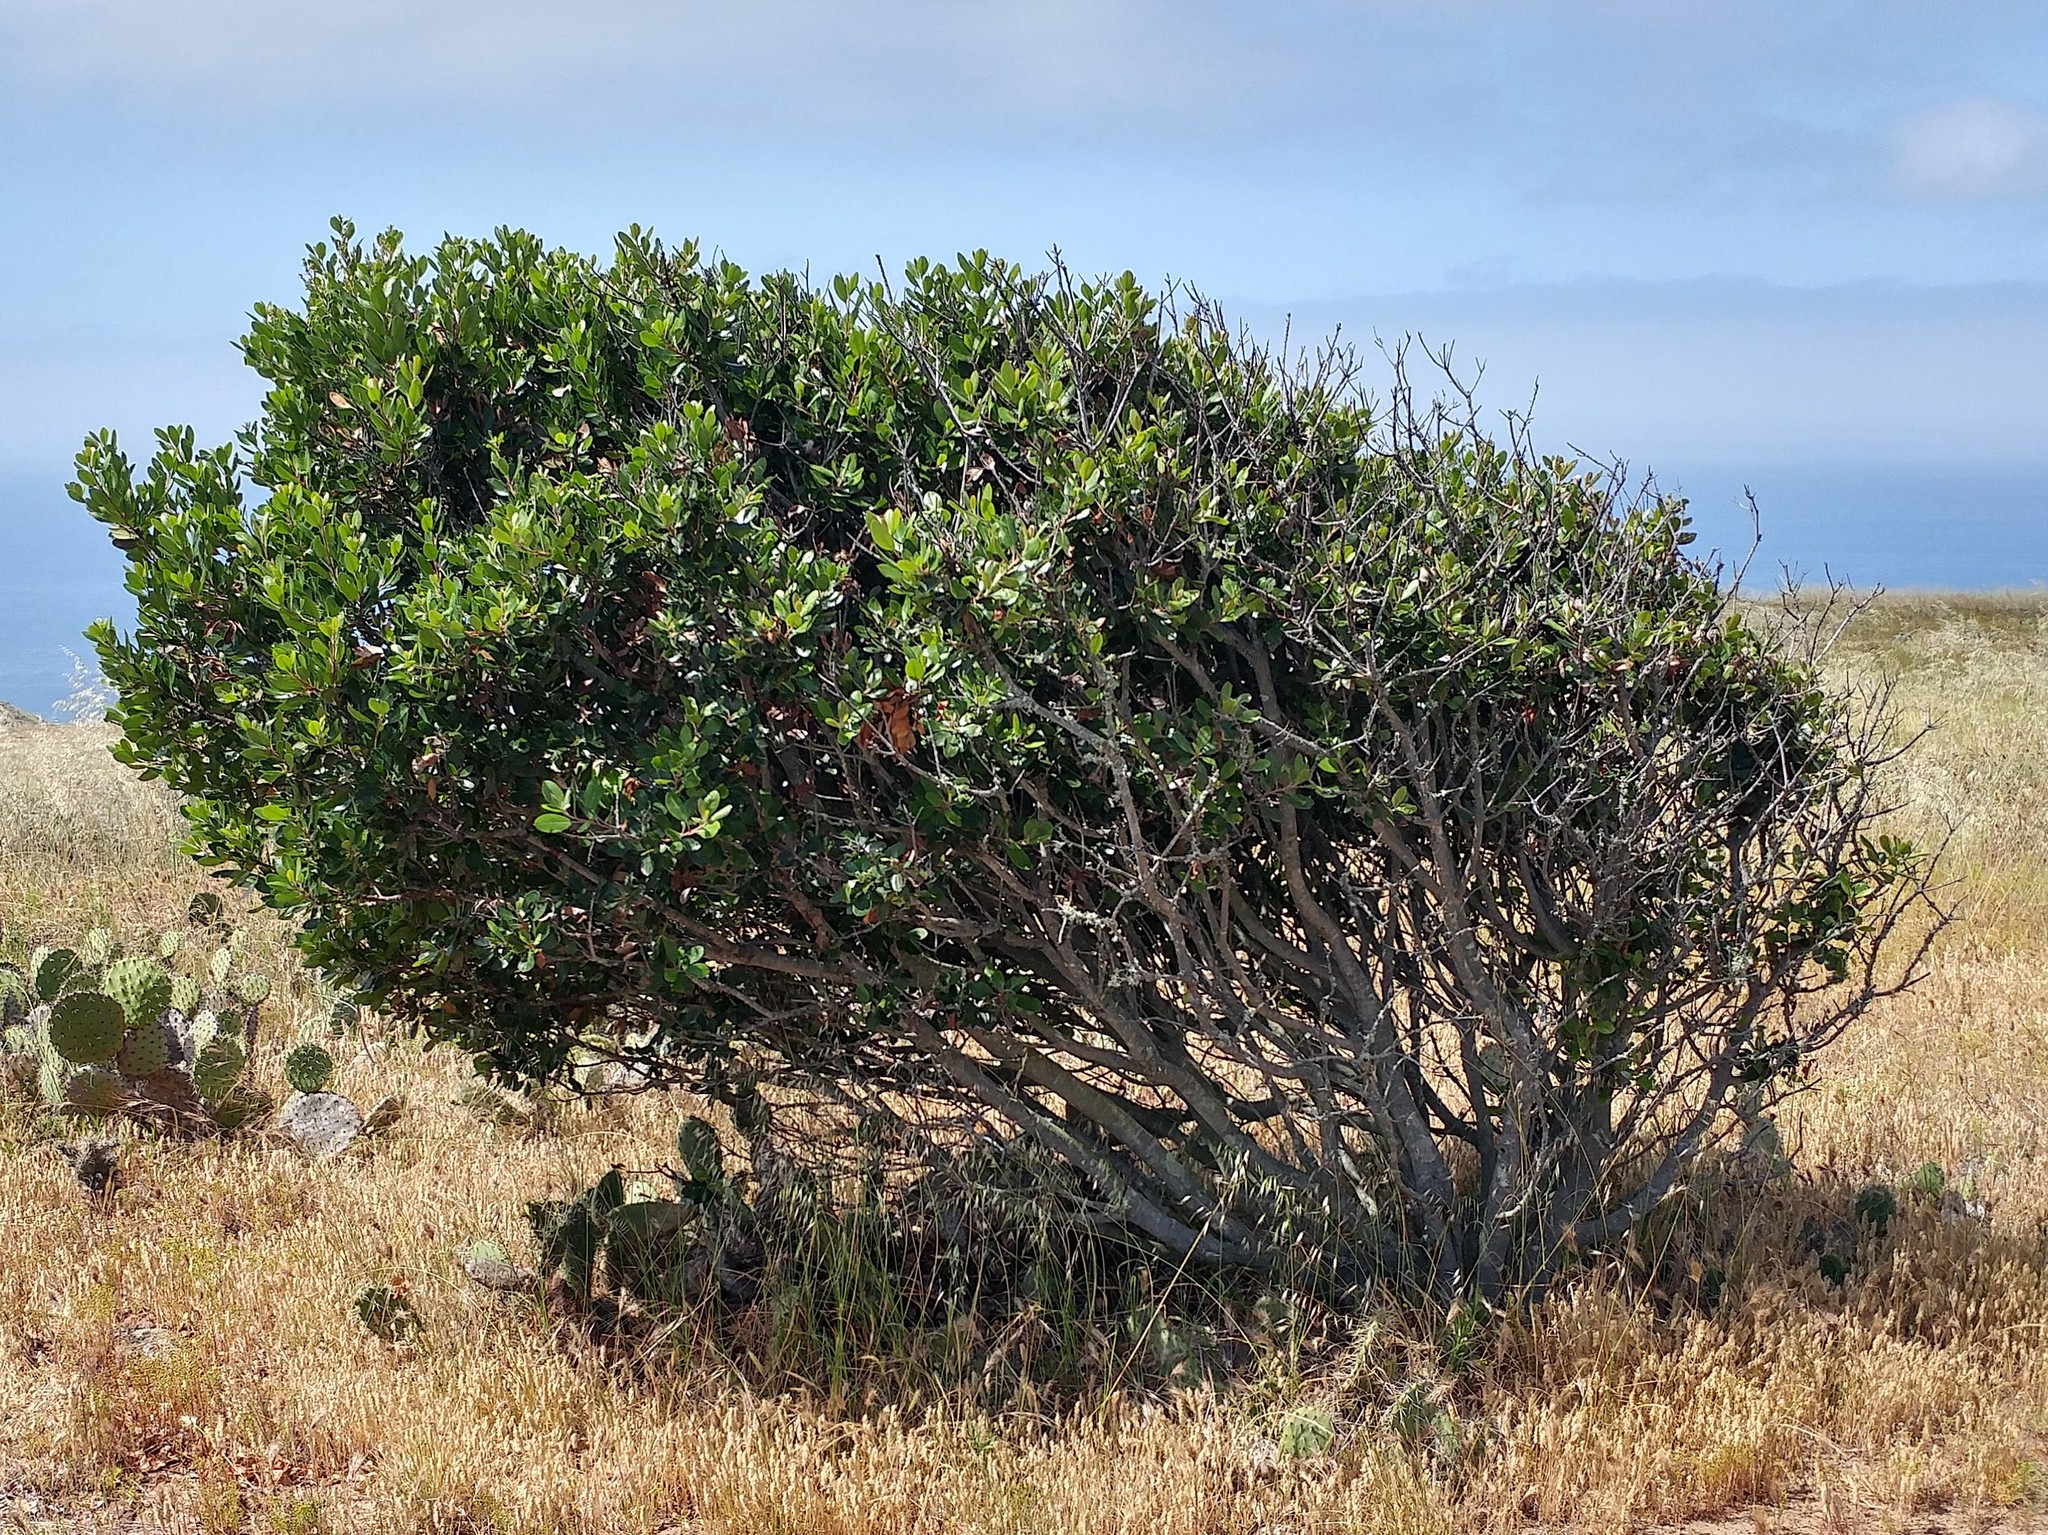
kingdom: Plantae
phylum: Tracheophyta
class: Magnoliopsida
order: Rosales
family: Rosaceae
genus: Heteromeles
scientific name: Heteromeles arbutifolia
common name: California-holly
